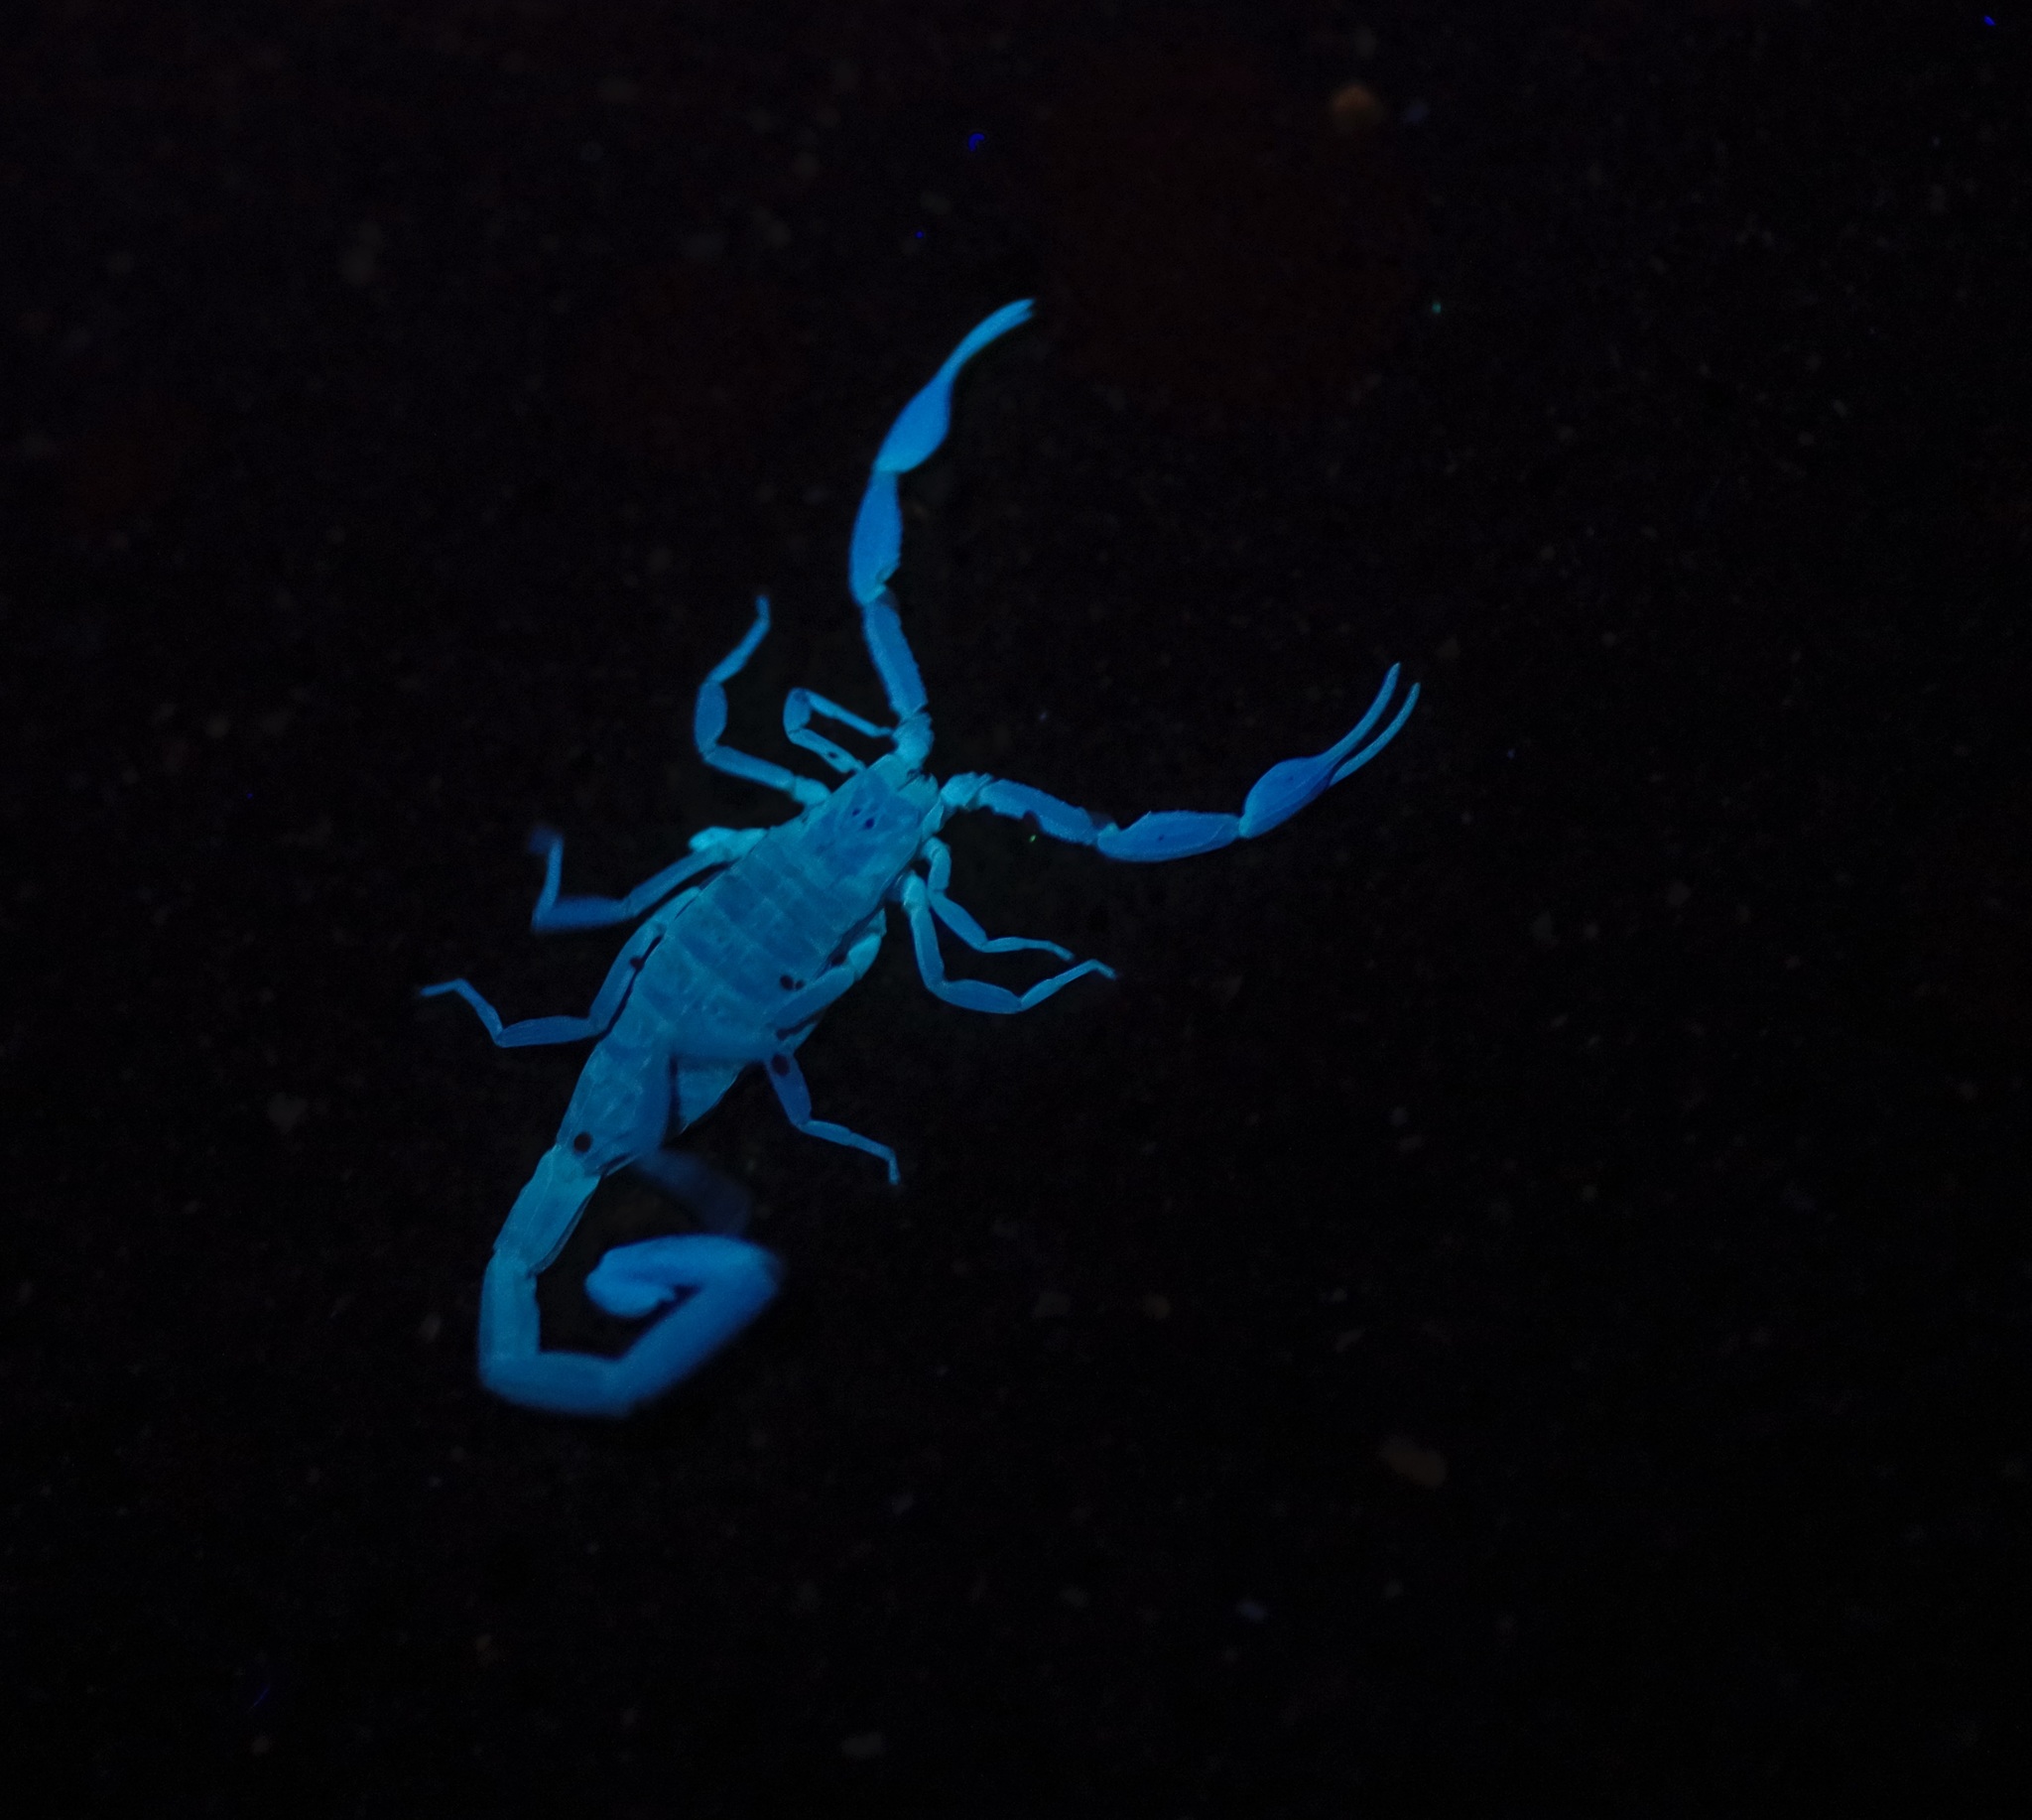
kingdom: Animalia
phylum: Arthropoda
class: Arachnida
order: Scorpiones
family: Buthidae
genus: Centruroides
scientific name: Centruroides vittatus
